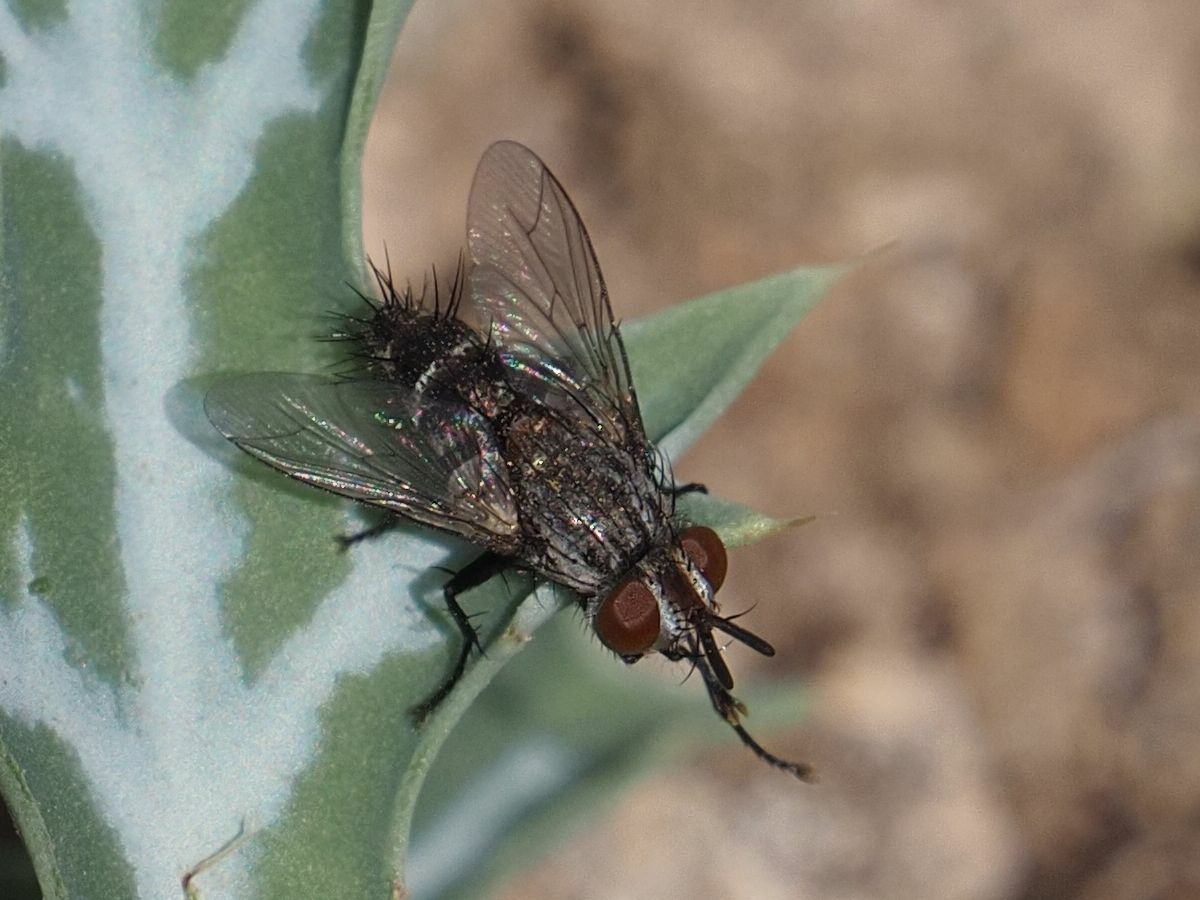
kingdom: Animalia
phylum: Arthropoda
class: Insecta
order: Diptera
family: Tachinidae
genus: Chetogena
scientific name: Chetogena acuminata
